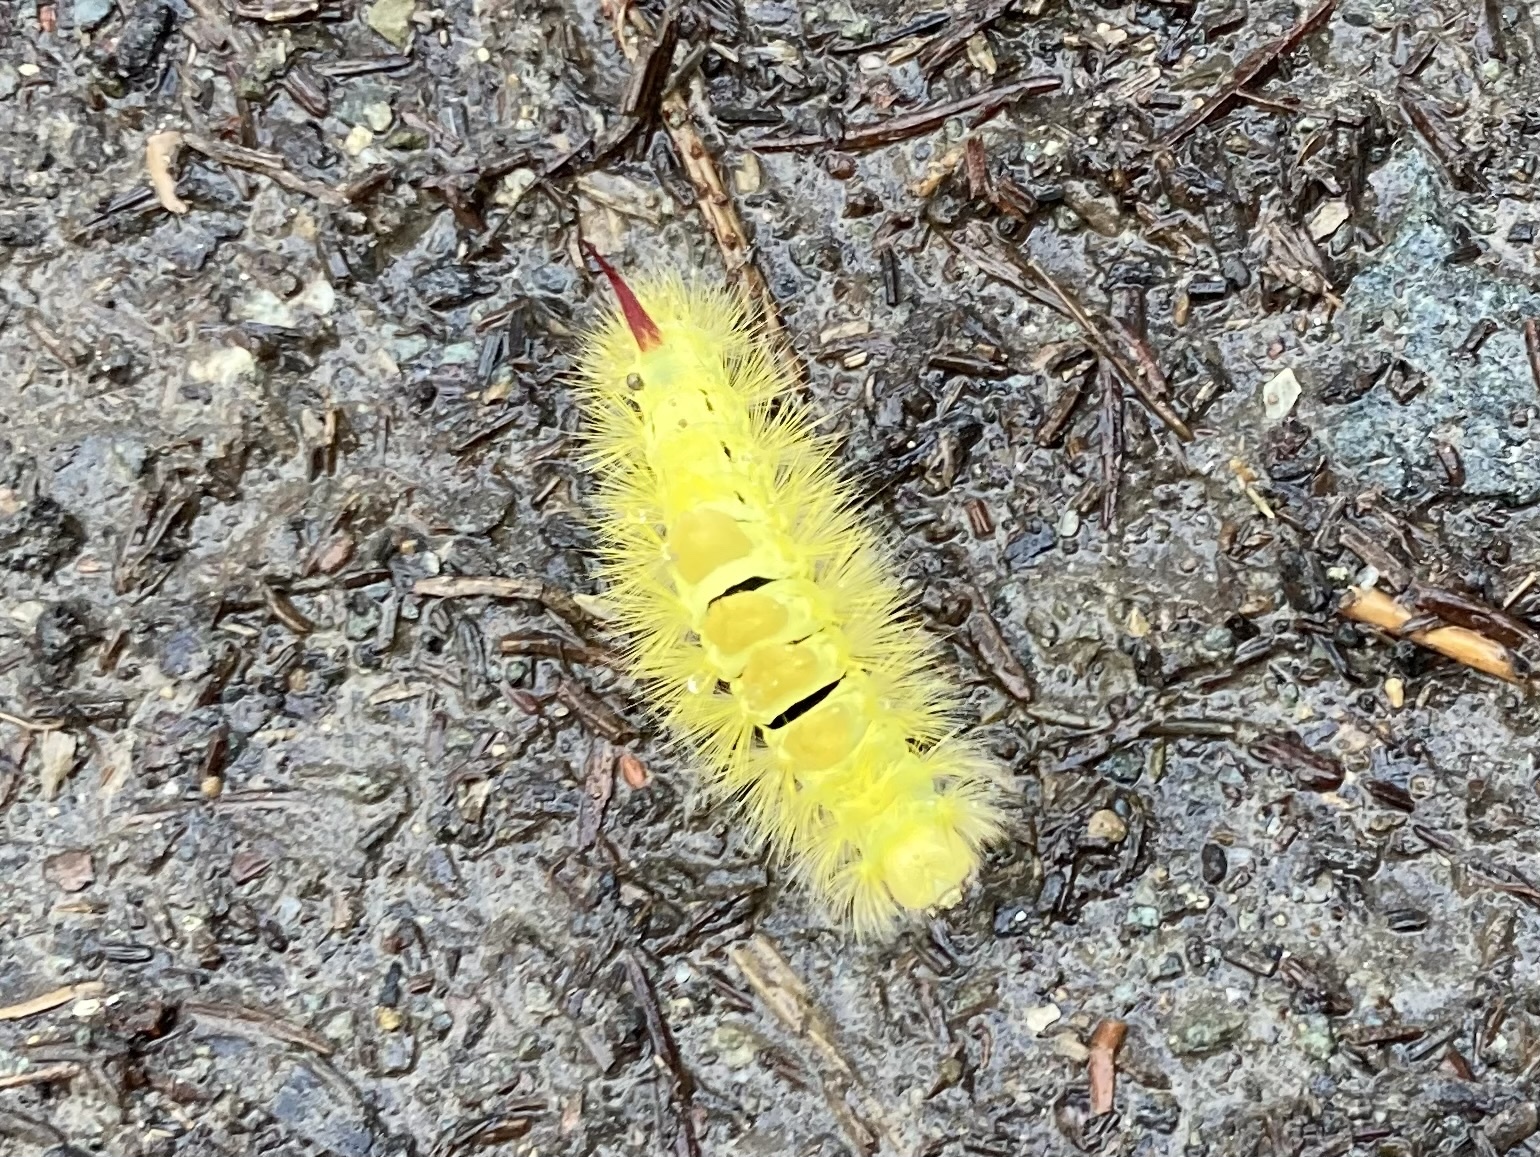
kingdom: Animalia
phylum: Arthropoda
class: Insecta
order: Lepidoptera
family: Erebidae
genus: Calliteara
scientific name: Calliteara pudibunda
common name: Pale tussock
